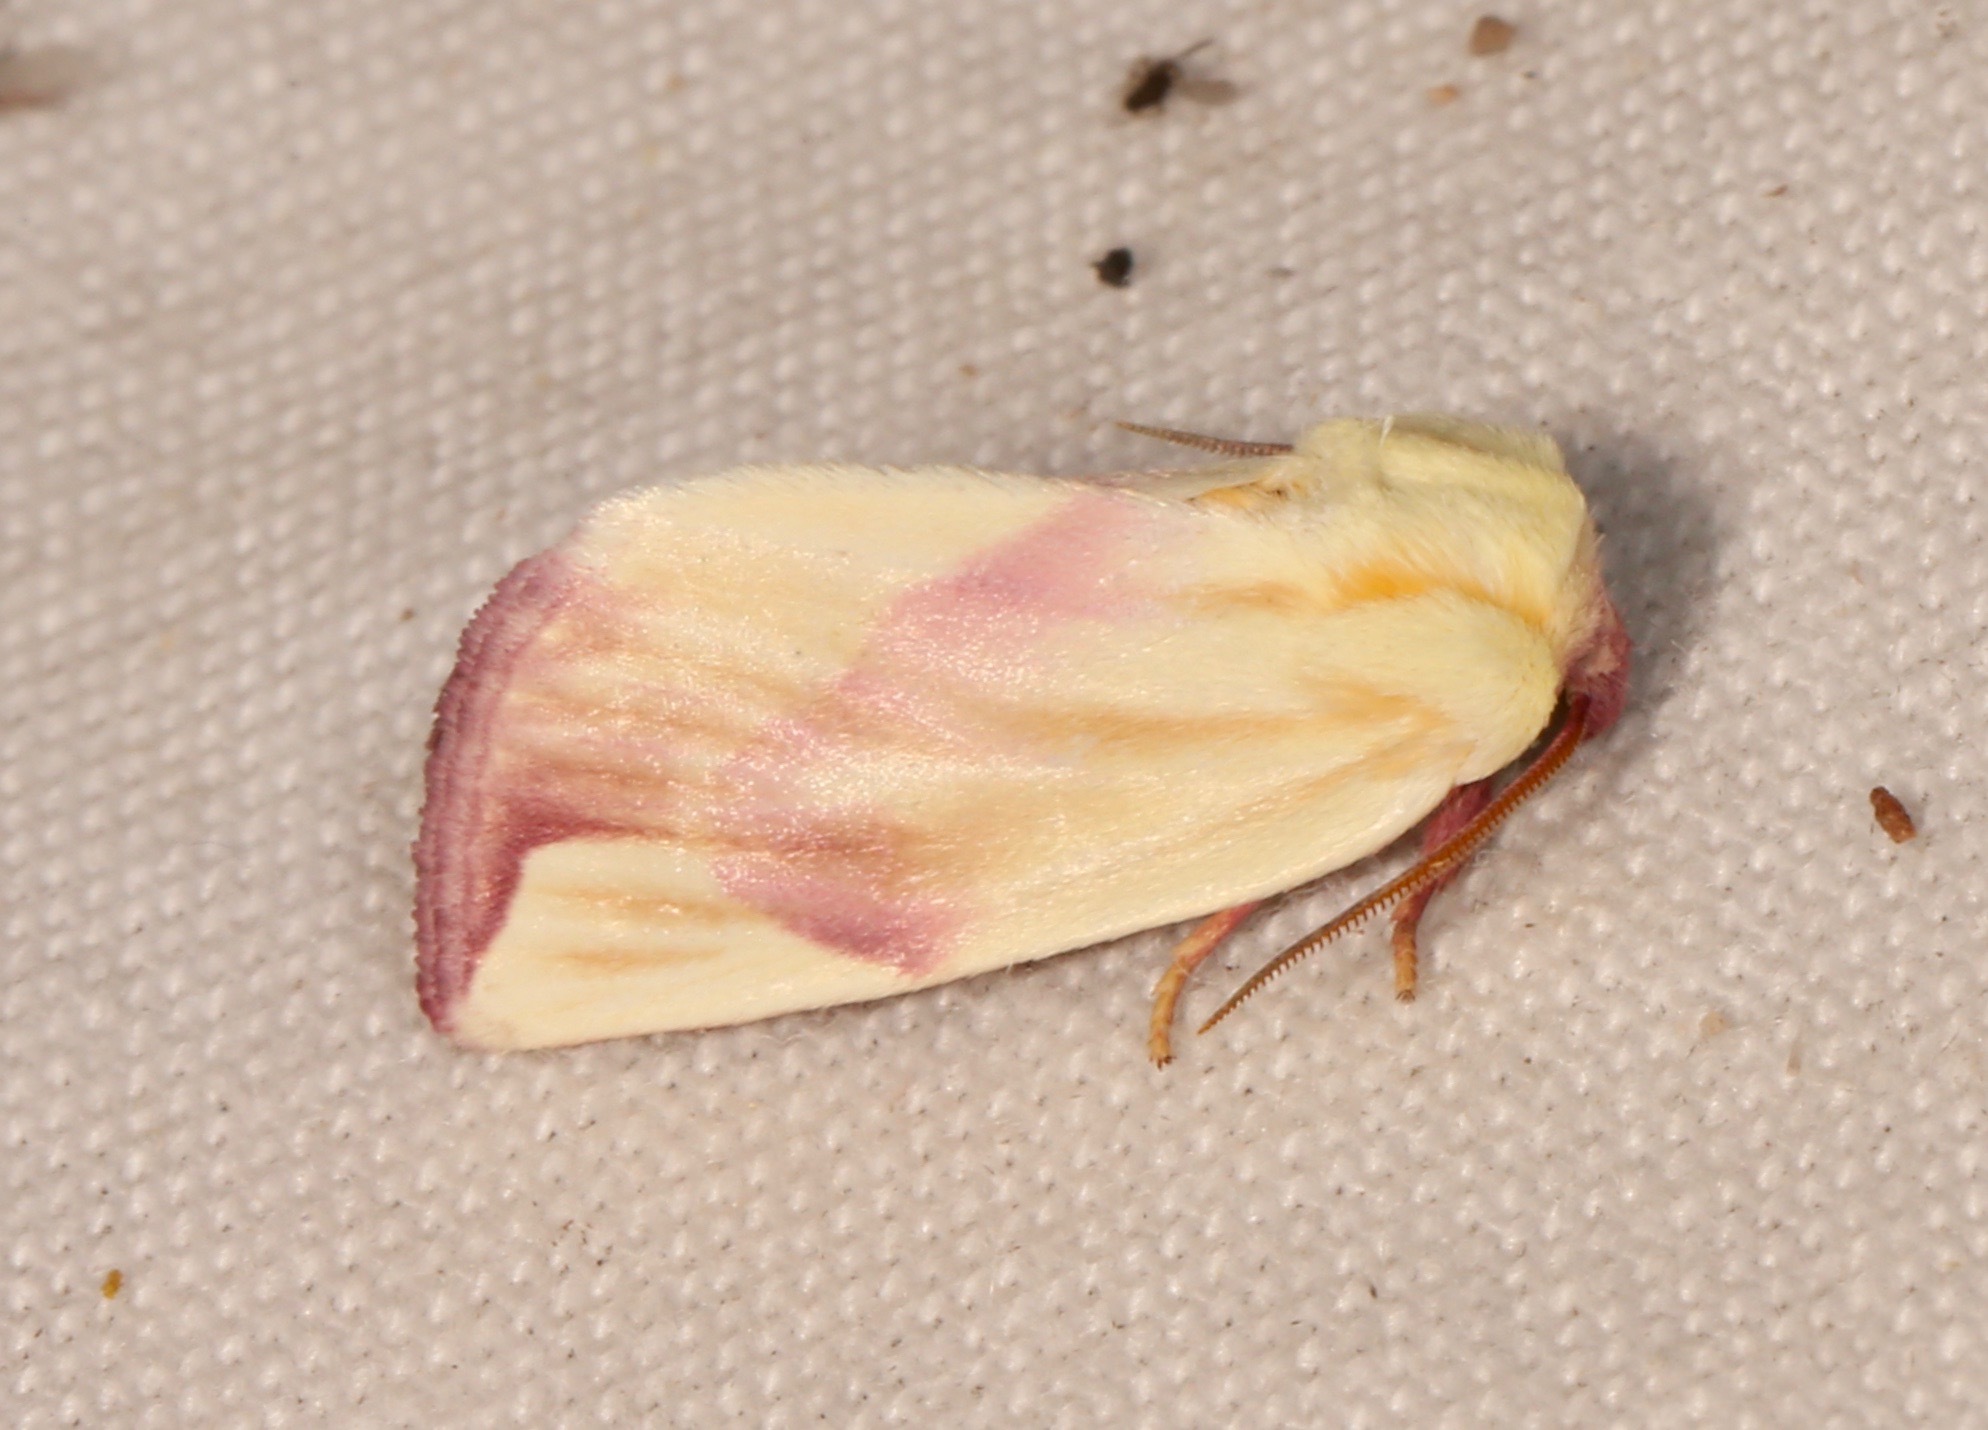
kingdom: Animalia
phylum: Arthropoda
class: Insecta
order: Lepidoptera
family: Noctuidae
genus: Thurberiphaga
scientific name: Thurberiphaga diffusa
